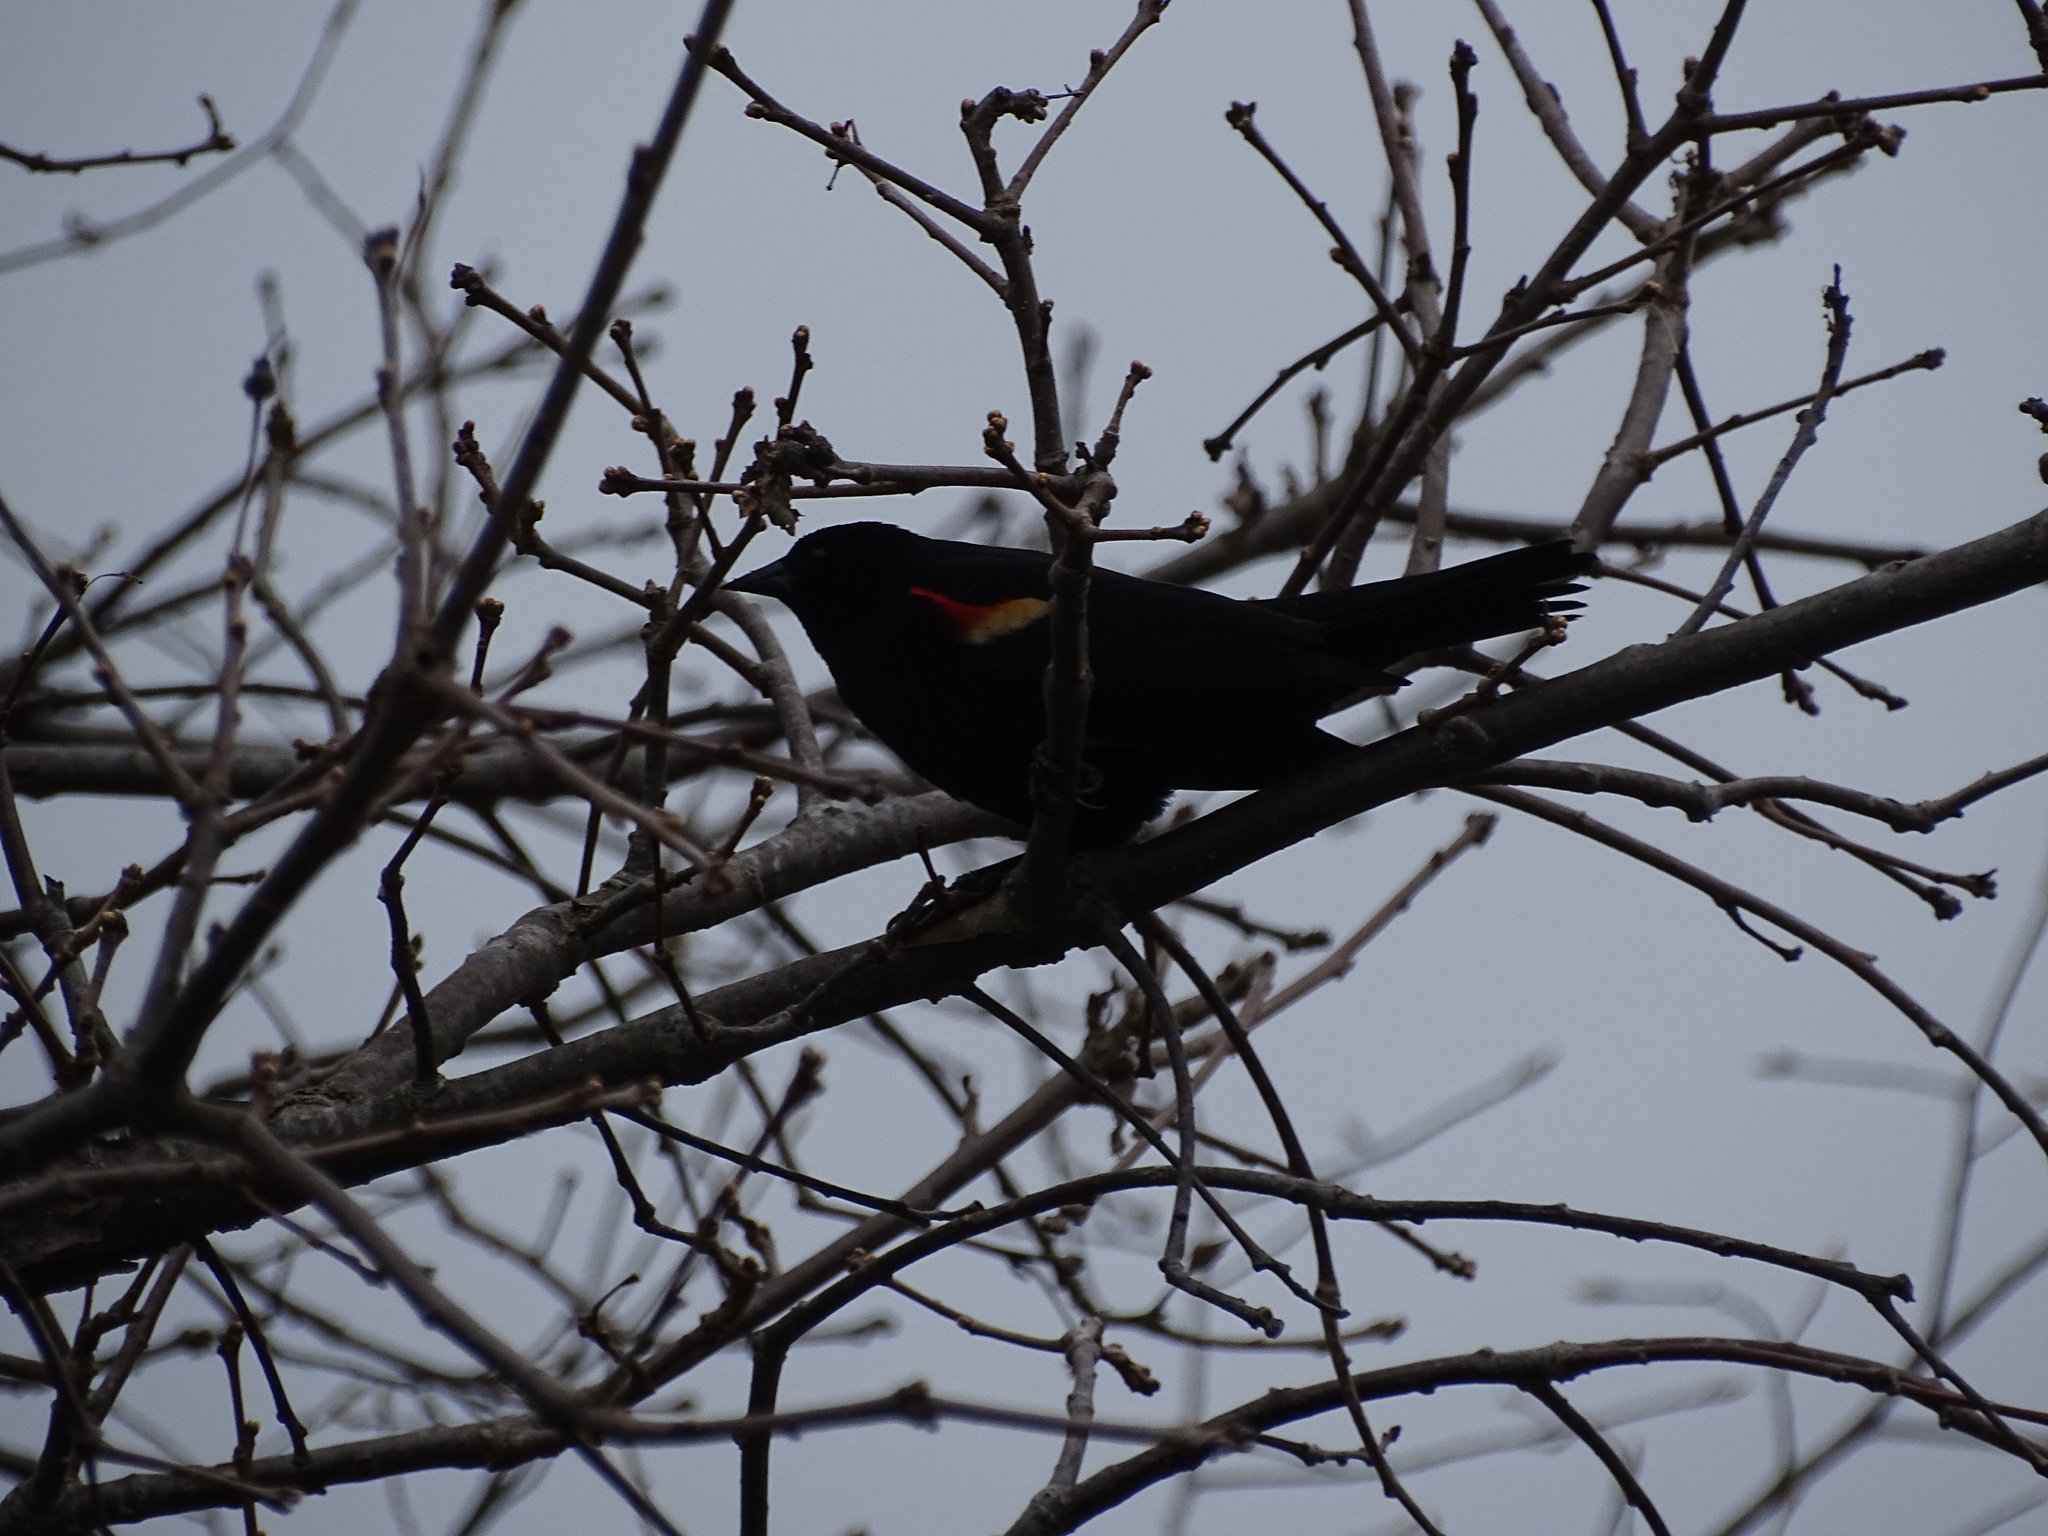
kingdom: Animalia
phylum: Chordata
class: Aves
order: Passeriformes
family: Icteridae
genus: Agelaius
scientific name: Agelaius phoeniceus
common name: Red-winged blackbird
